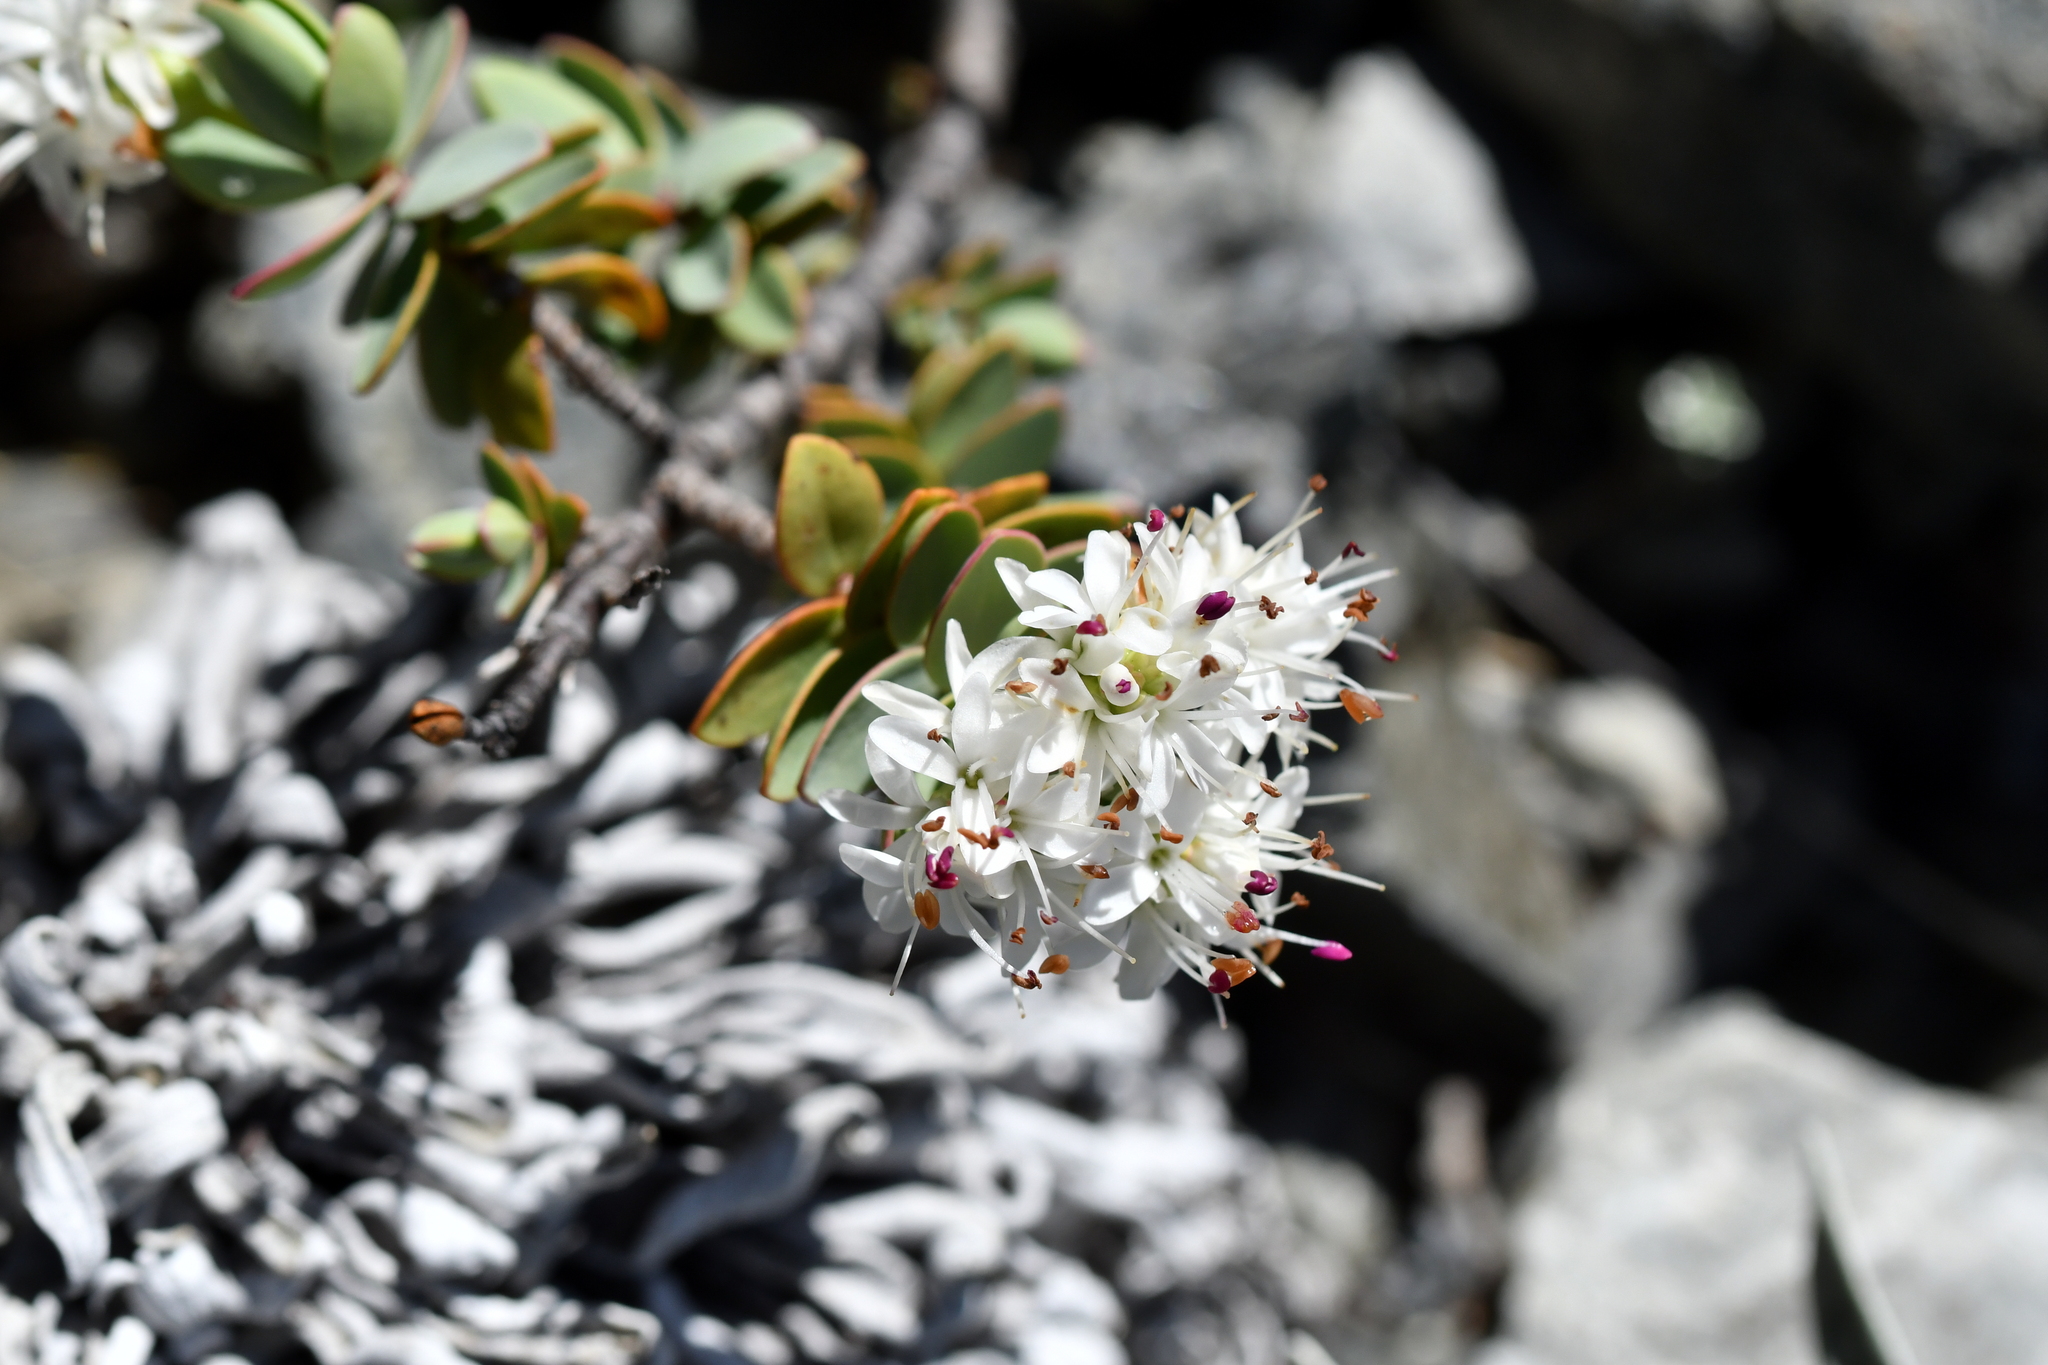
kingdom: Plantae
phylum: Tracheophyta
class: Magnoliopsida
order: Lamiales
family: Plantaginaceae
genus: Veronica
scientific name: Veronica pinguifolia
